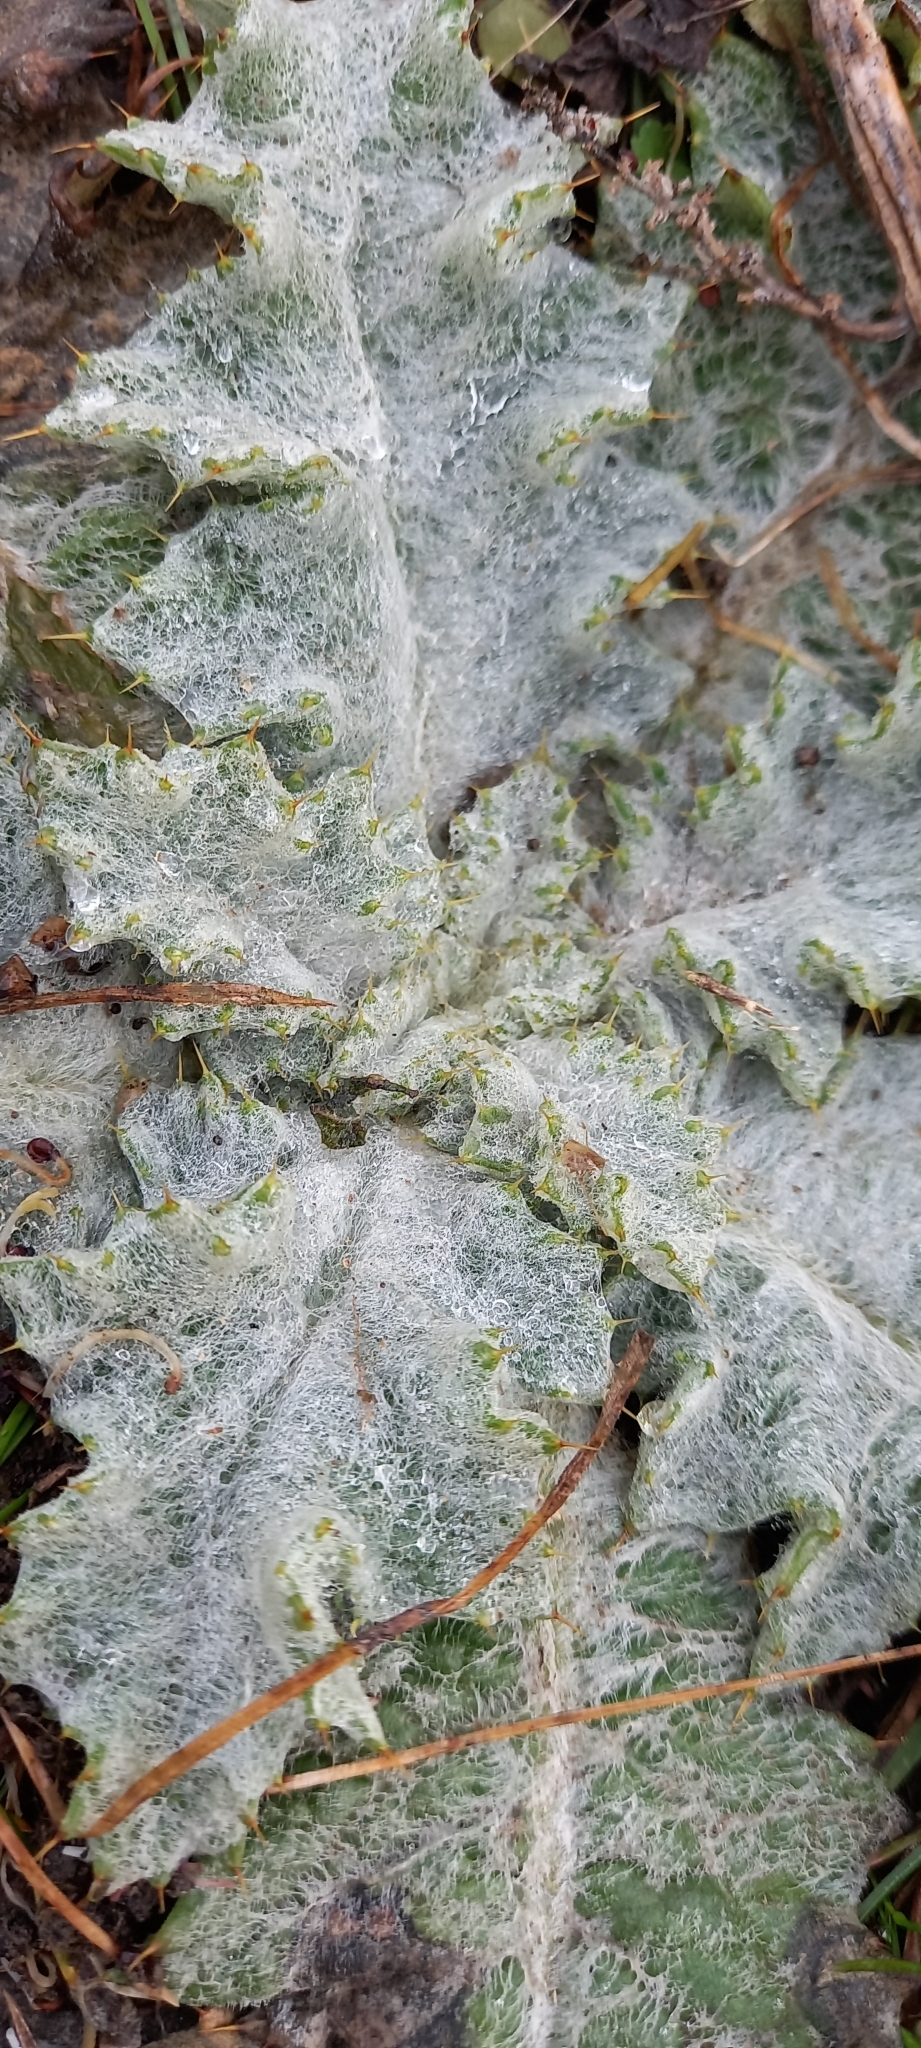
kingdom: Plantae
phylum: Tracheophyta
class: Magnoliopsida
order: Asterales
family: Asteraceae
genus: Onopordum
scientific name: Onopordum acanthium
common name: Scotch thistle
